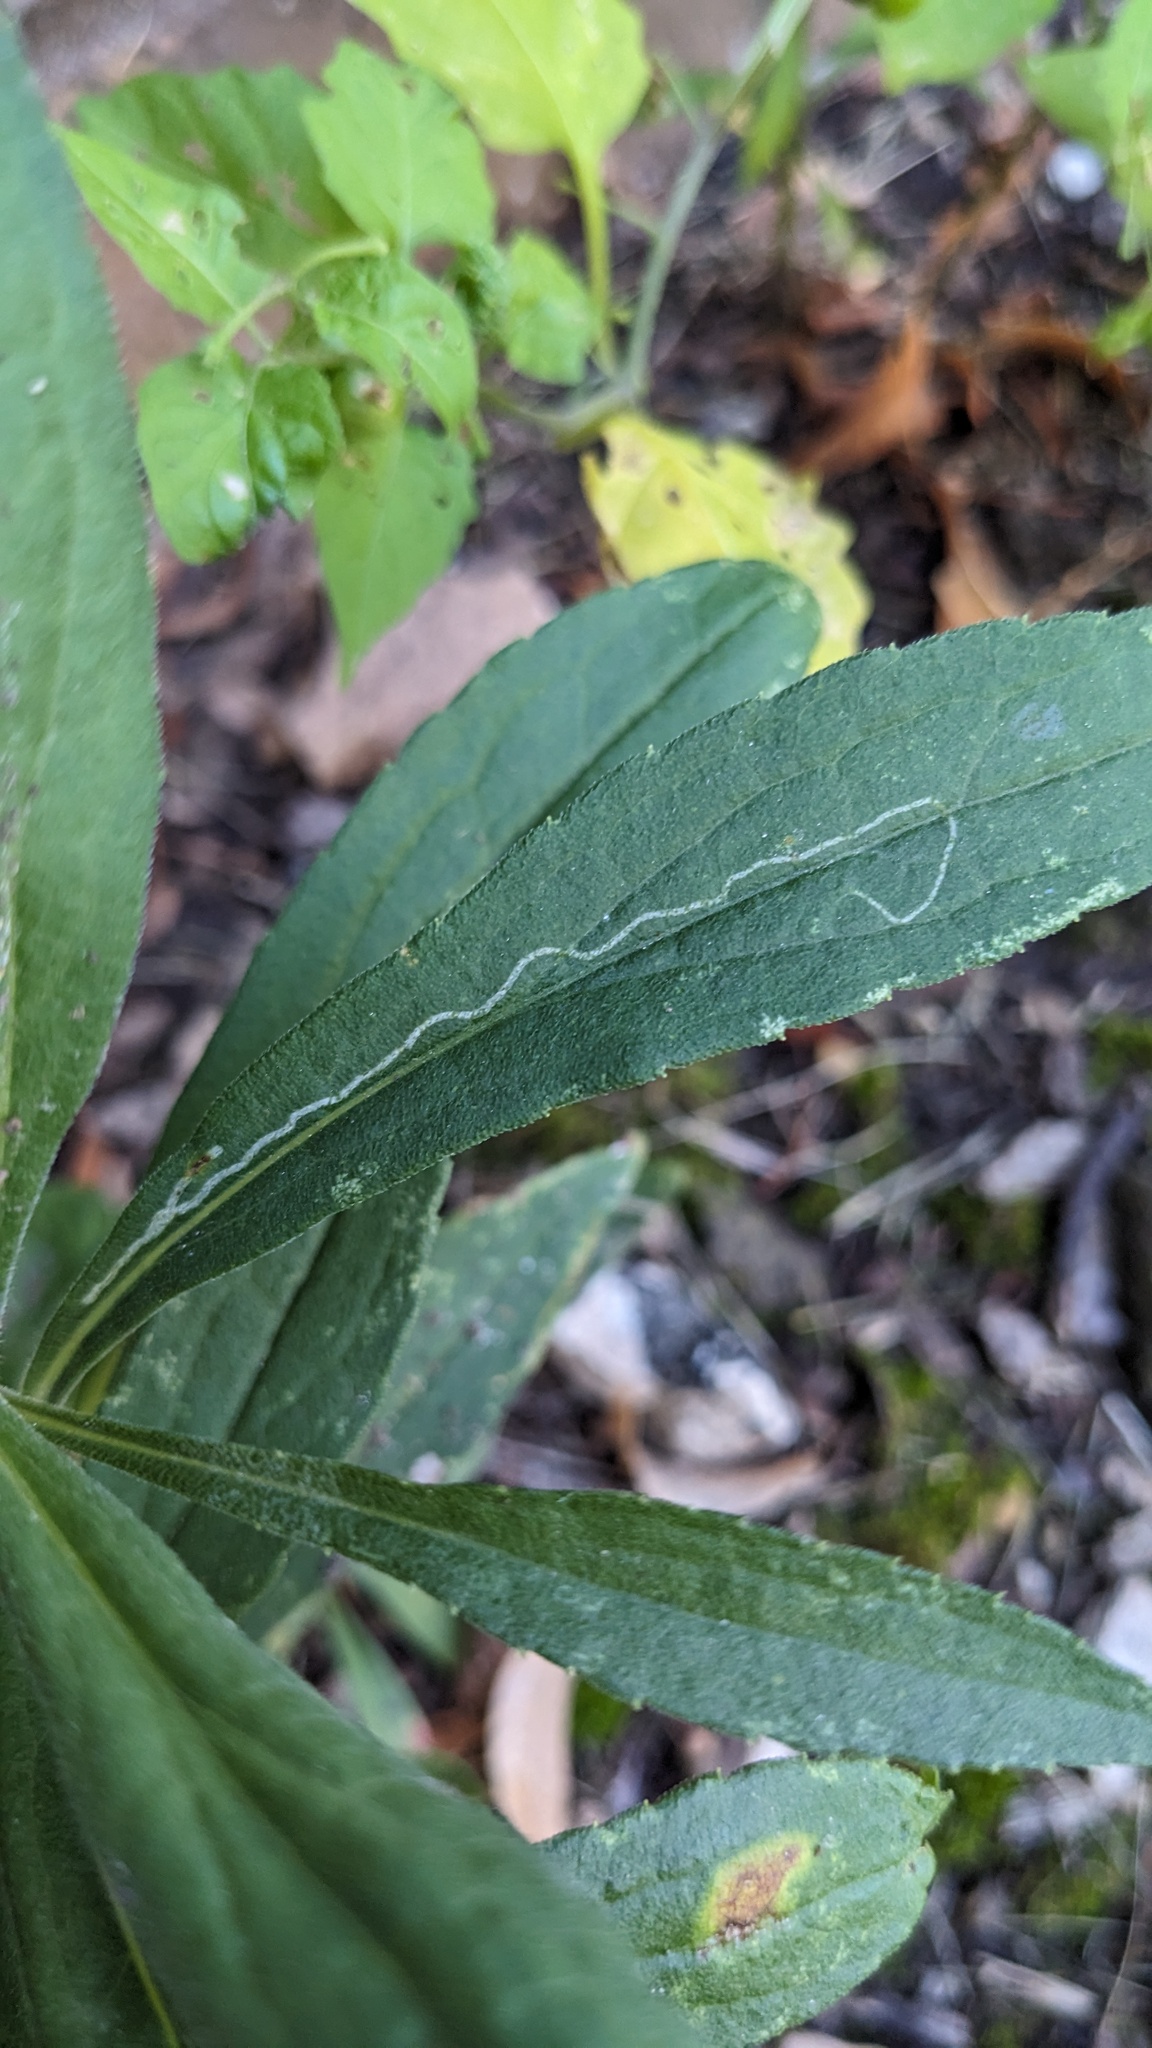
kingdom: Animalia
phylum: Arthropoda
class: Insecta
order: Diptera
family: Agromyzidae
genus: Ophiomyia
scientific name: Ophiomyia maura
